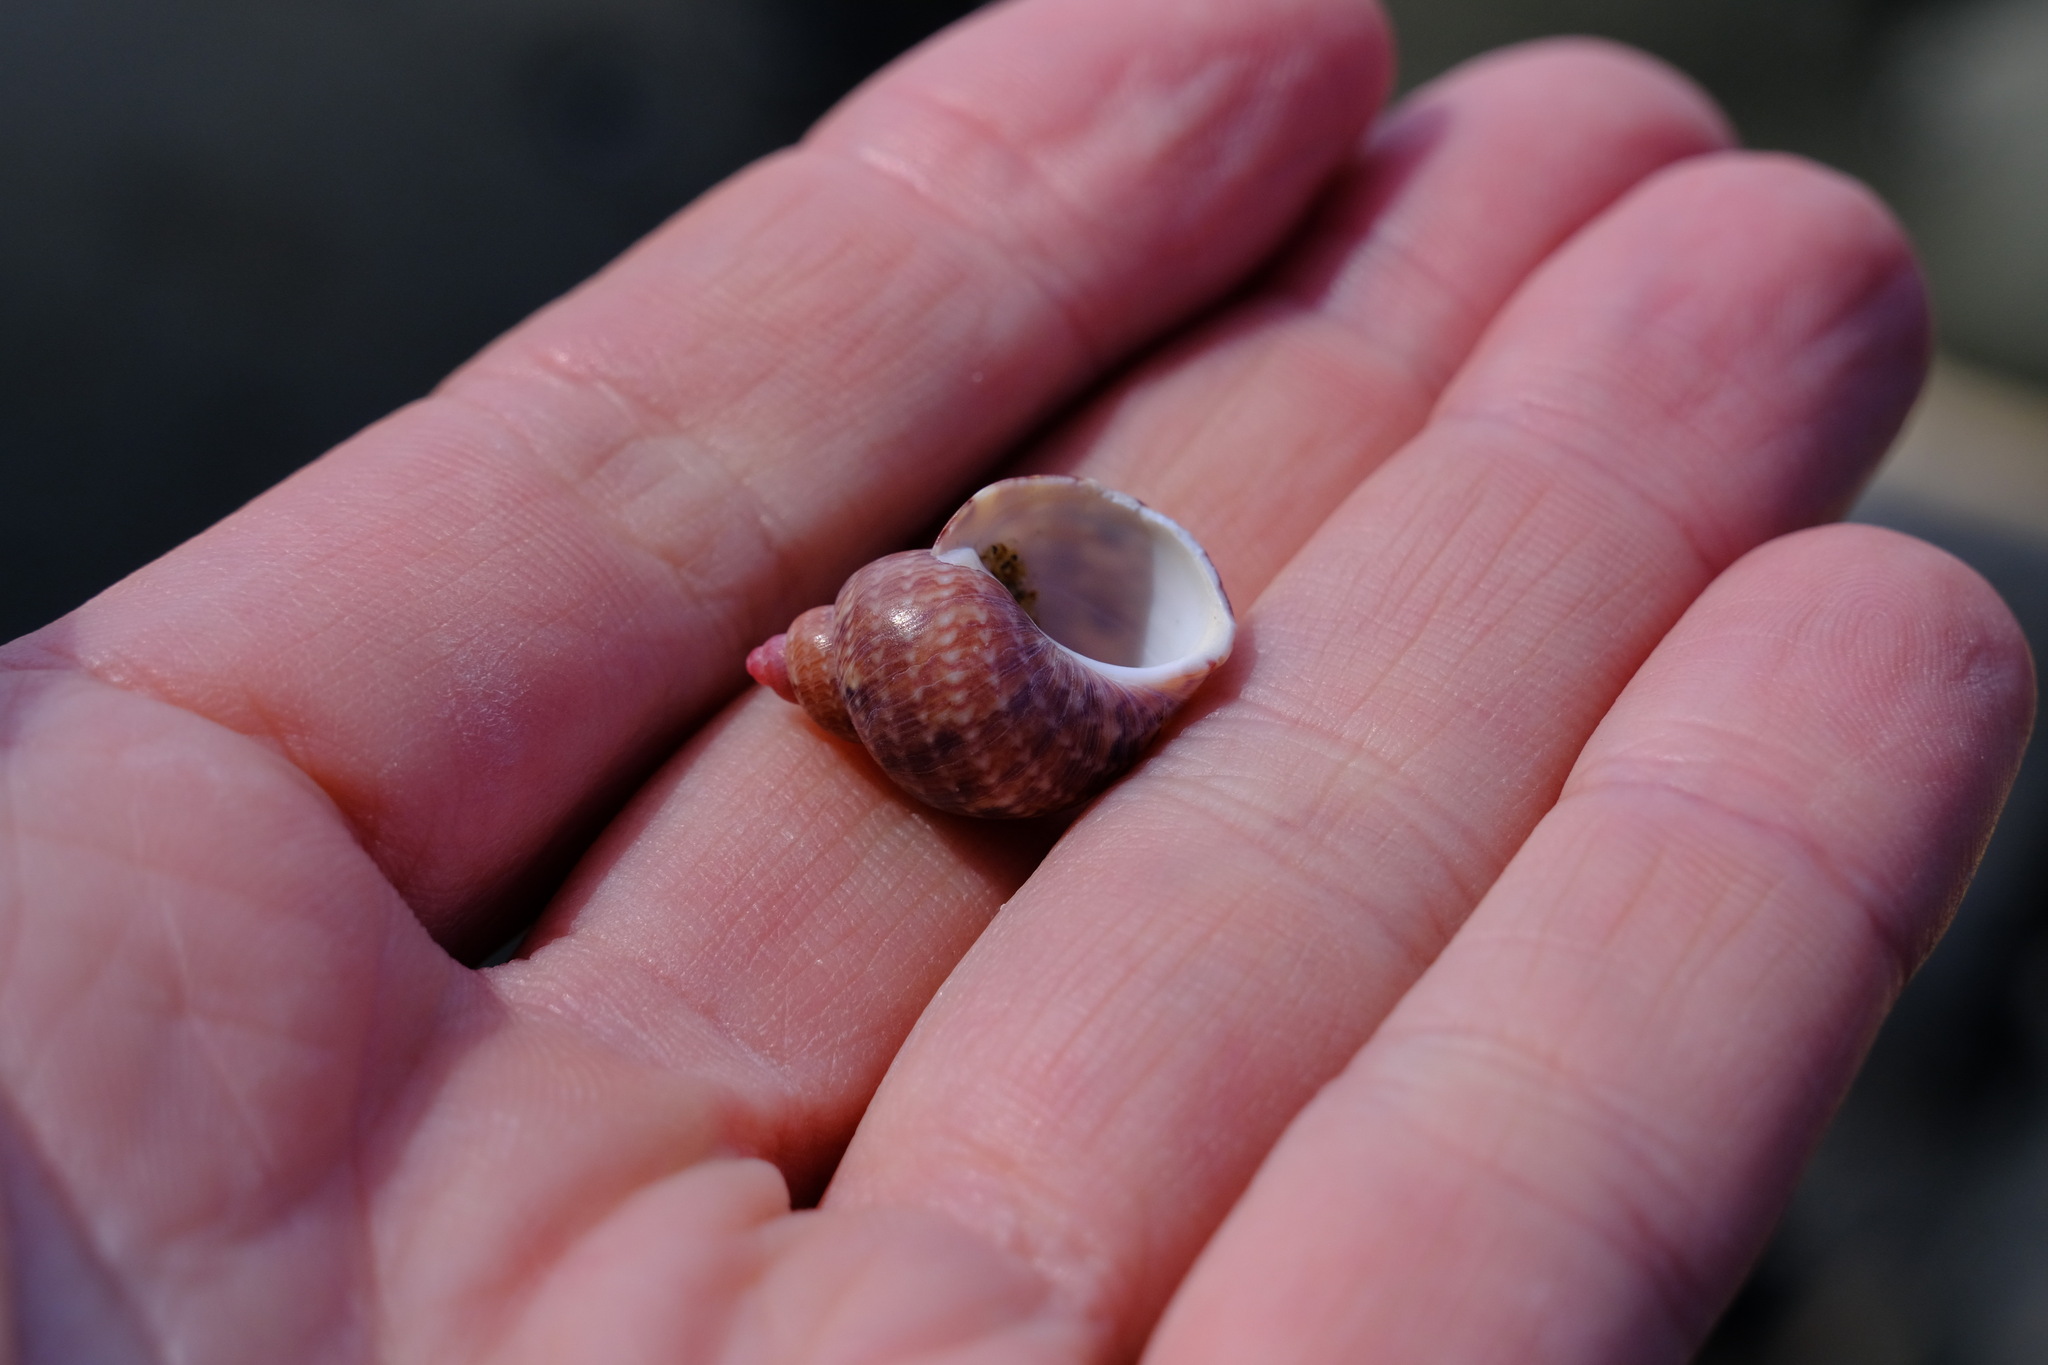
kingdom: Animalia
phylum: Mollusca
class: Gastropoda
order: Trochida
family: Phasianellidae
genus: Phasianella
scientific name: Phasianella ventricosa
